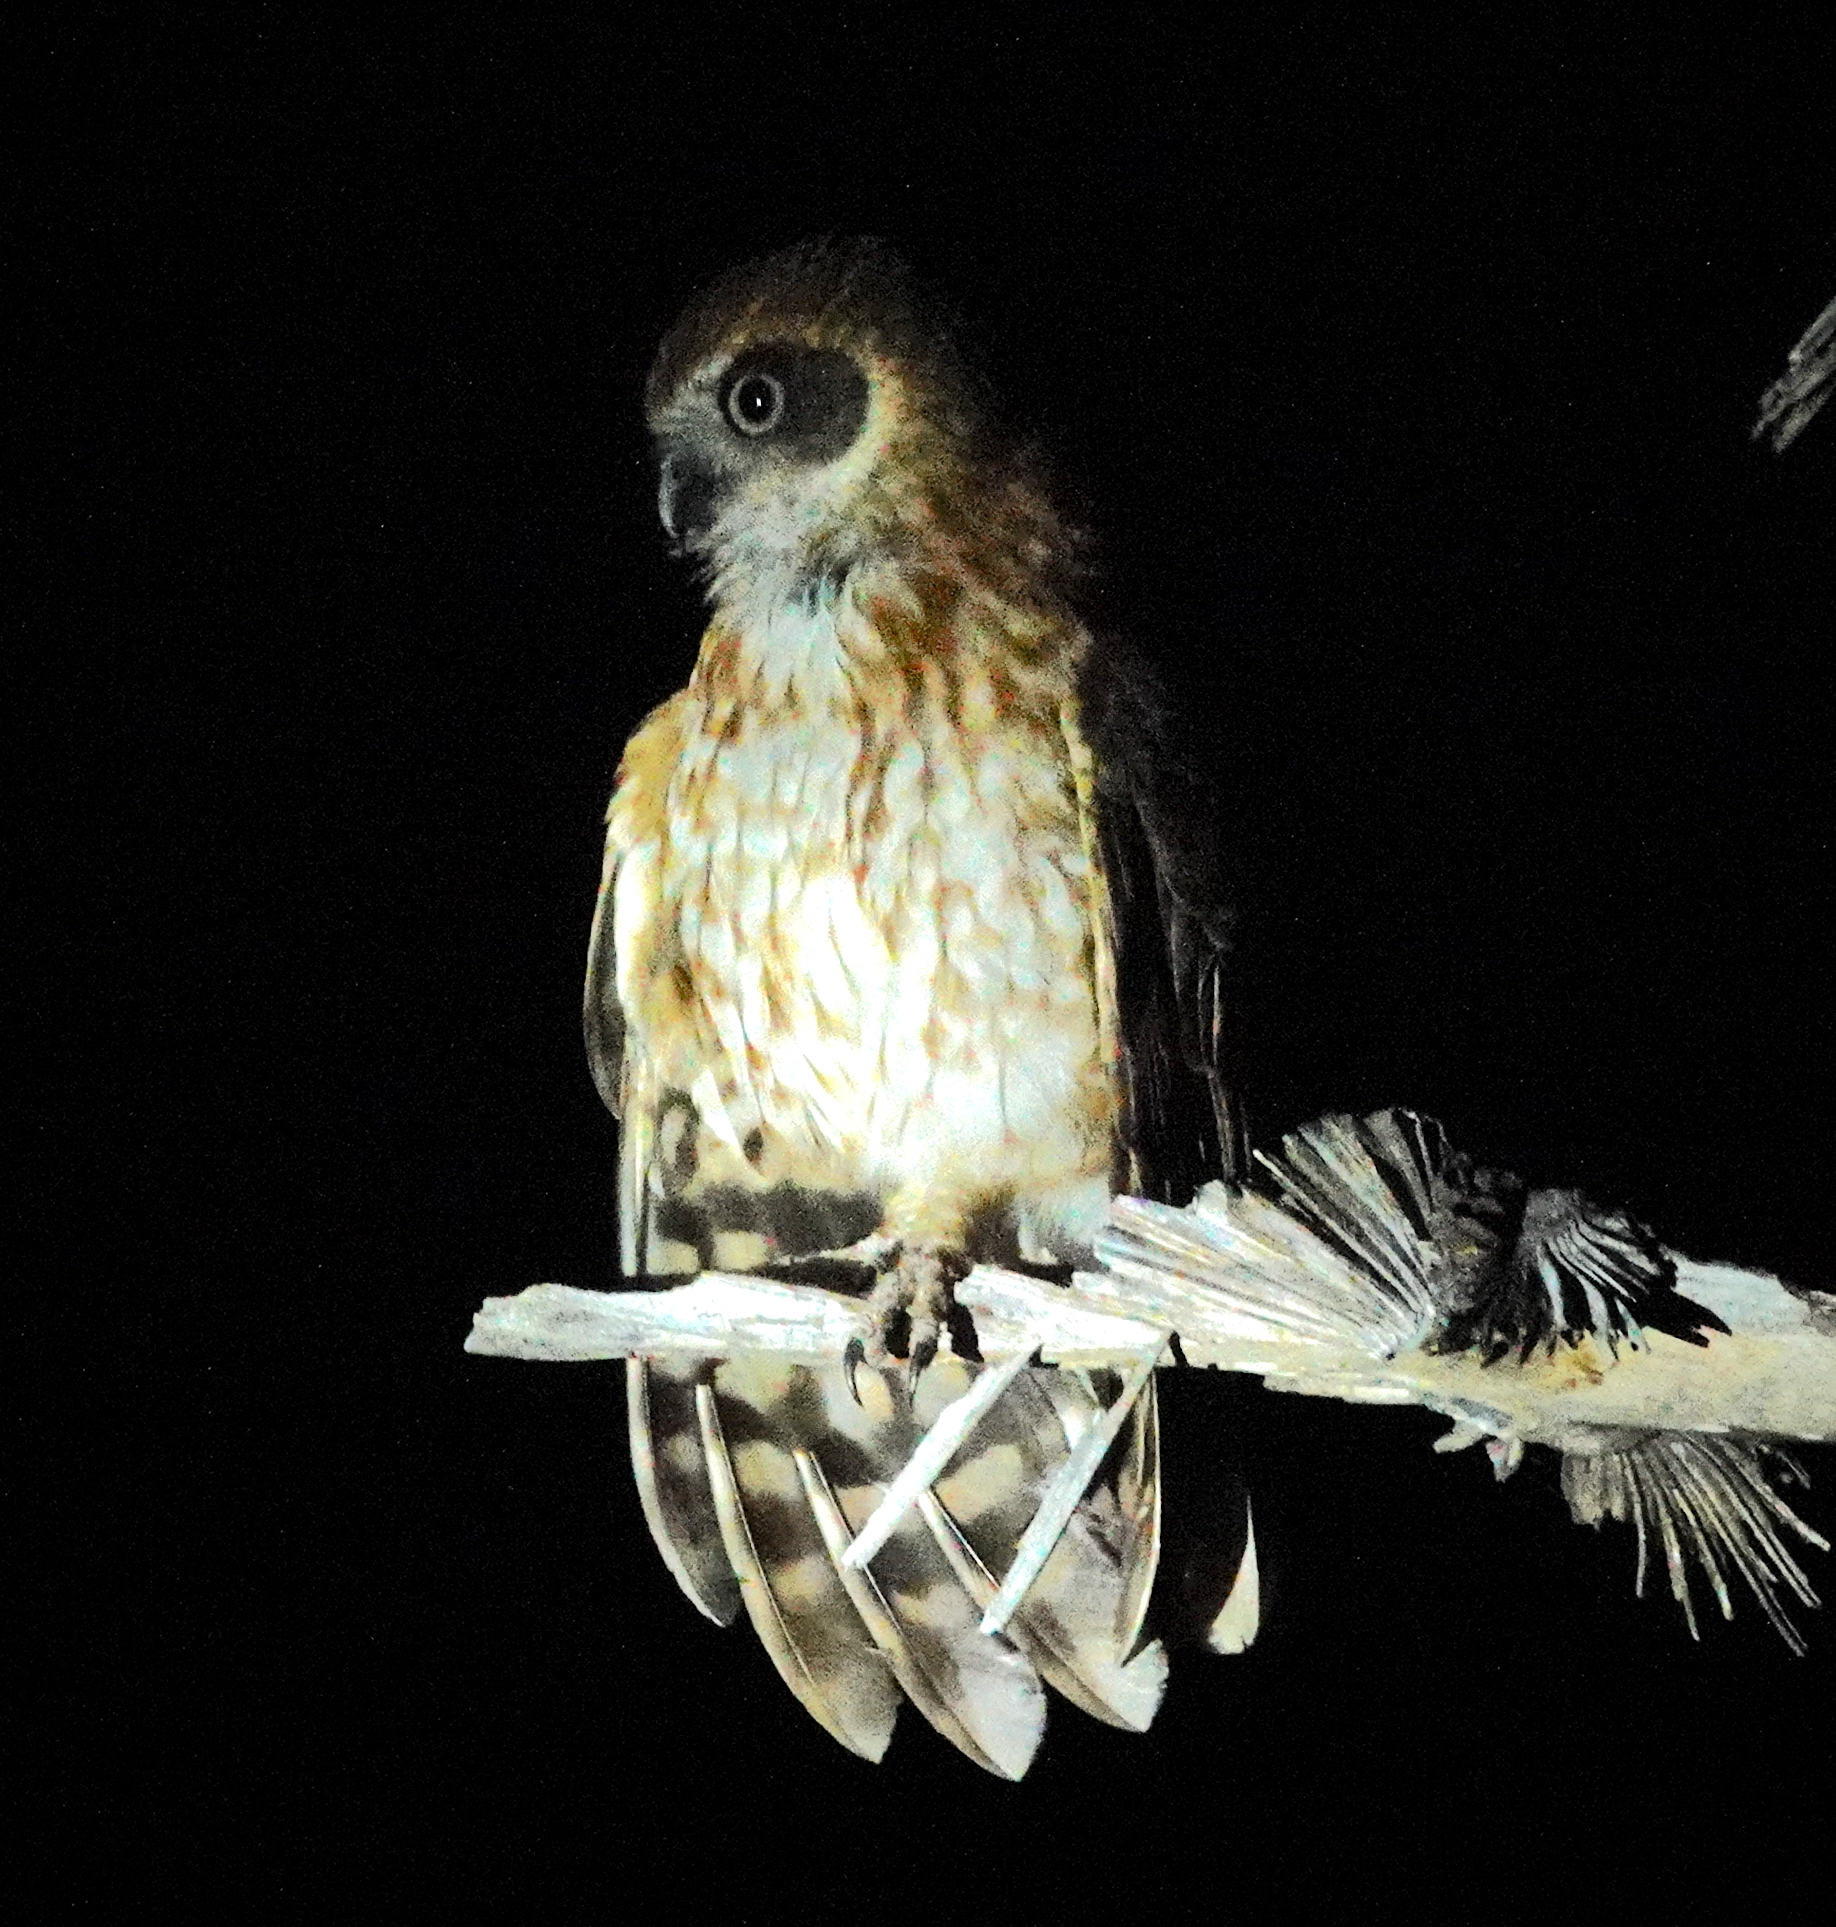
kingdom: Animalia
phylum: Chordata
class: Aves
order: Strigiformes
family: Strigidae
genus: Ninox
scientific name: Ninox boobook
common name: Southern boobook
